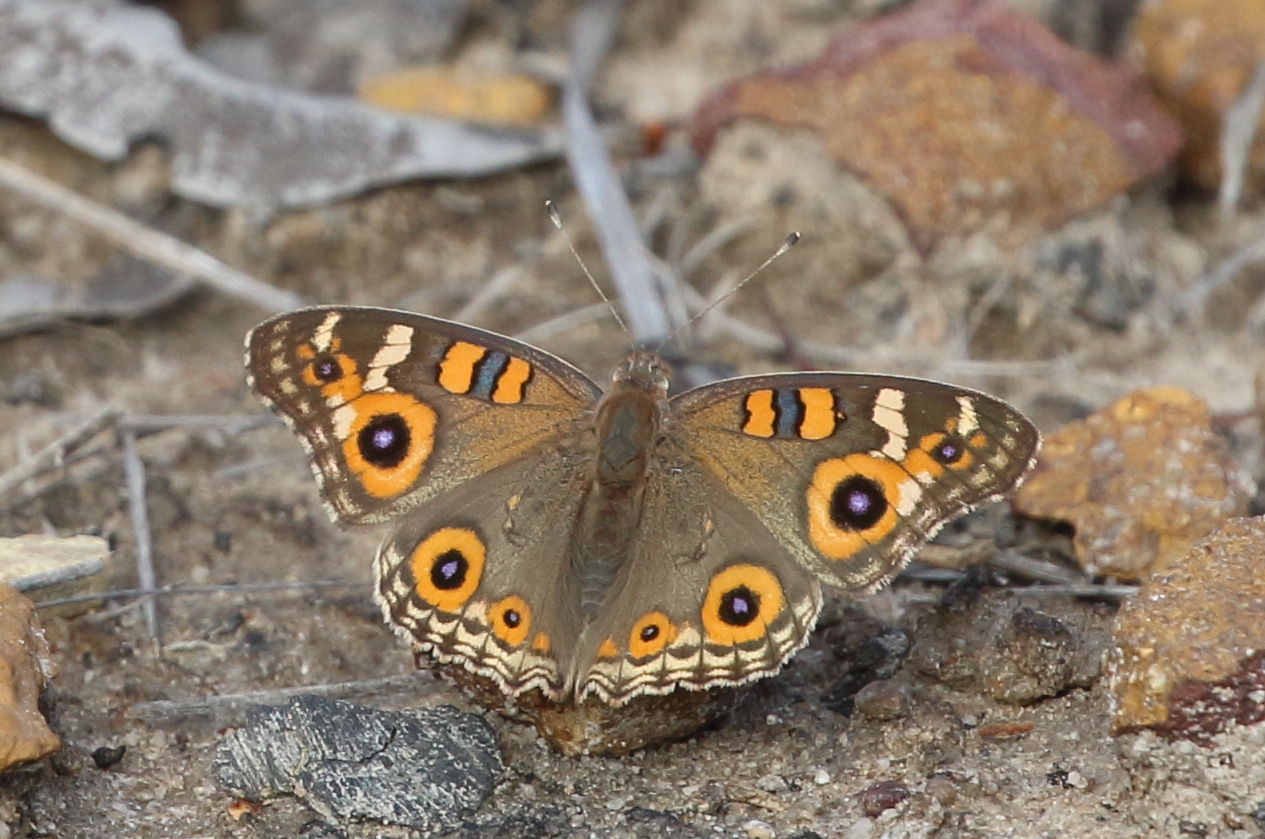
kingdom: Animalia
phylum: Arthropoda
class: Insecta
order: Lepidoptera
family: Nymphalidae
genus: Junonia
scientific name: Junonia villida
